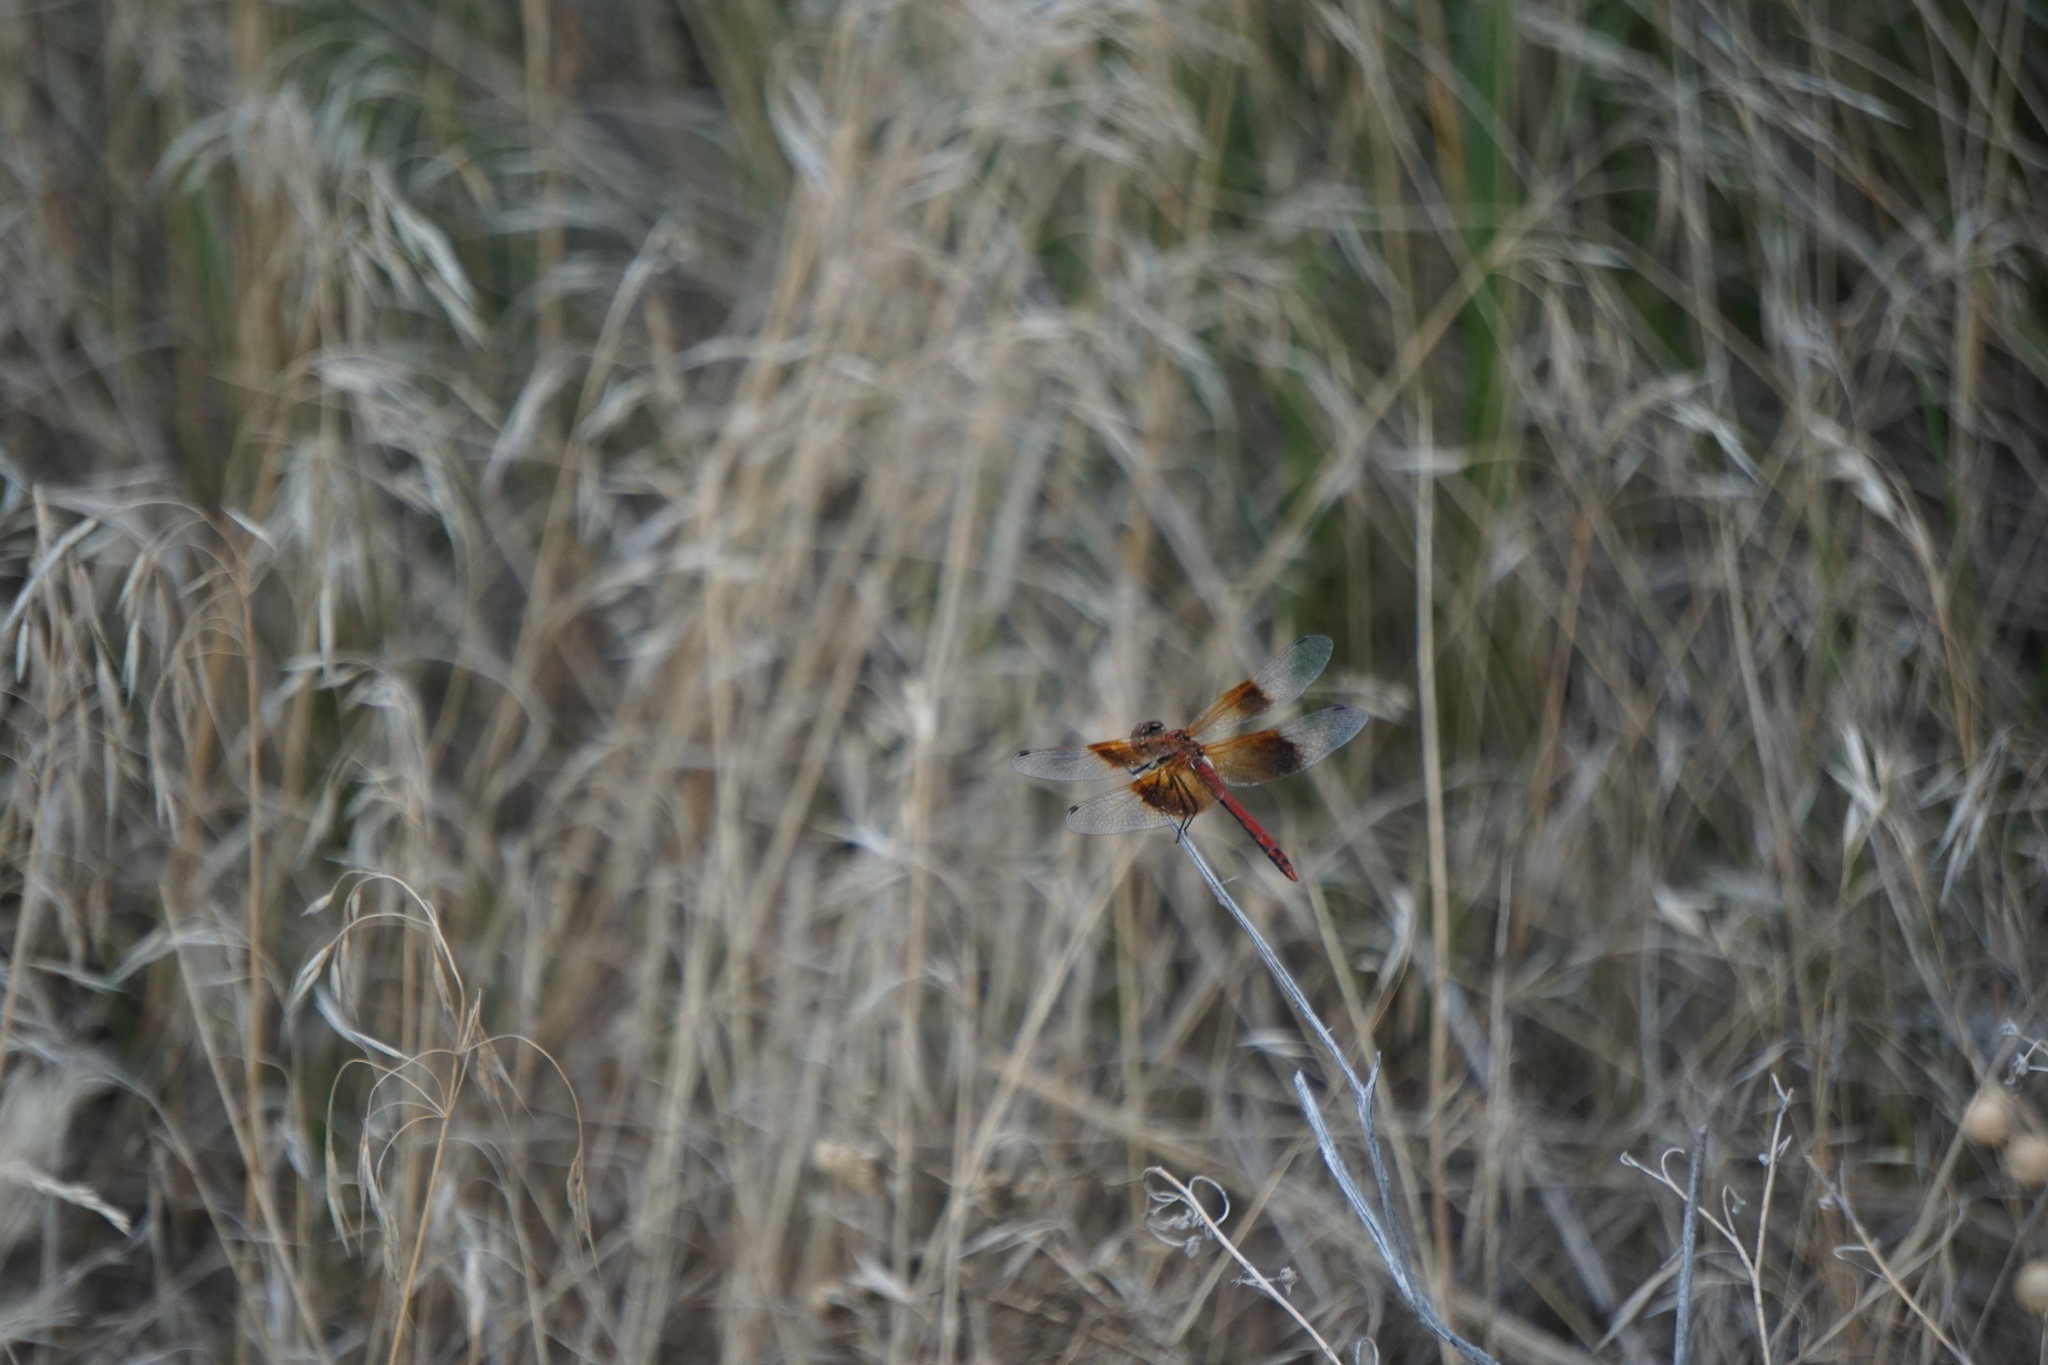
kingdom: Animalia
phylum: Arthropoda
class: Insecta
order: Odonata
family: Libellulidae
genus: Sympetrum
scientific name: Sympetrum semicinctum
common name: Band-winged meadowhawk
